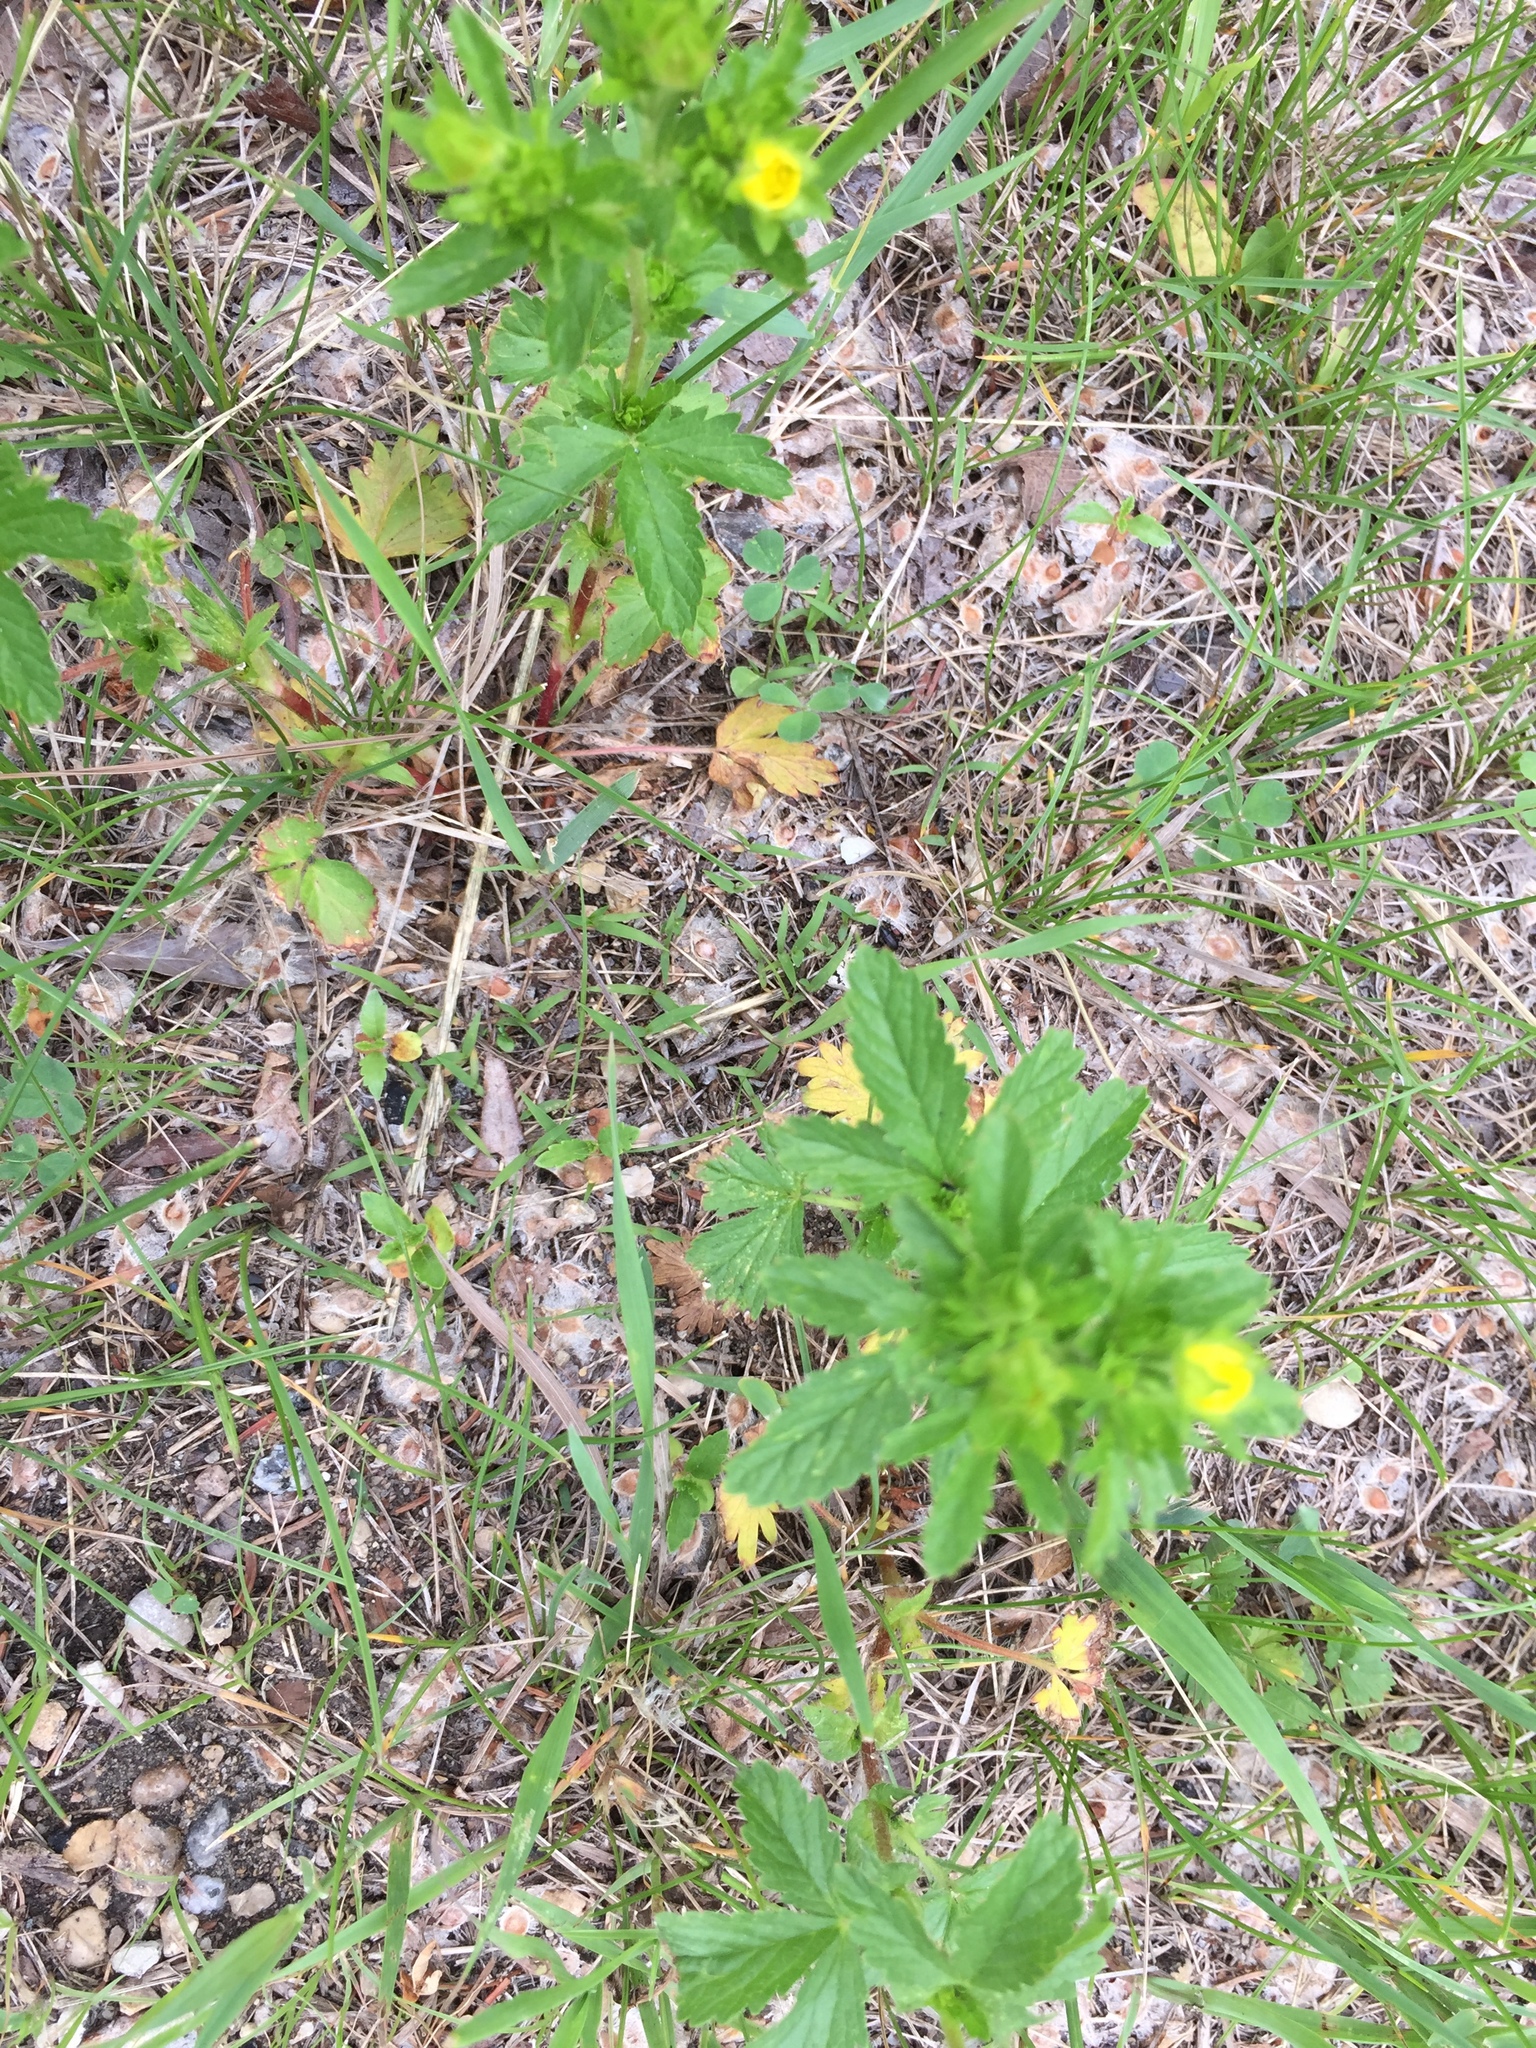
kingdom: Plantae
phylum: Tracheophyta
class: Magnoliopsida
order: Rosales
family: Rosaceae
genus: Potentilla
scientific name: Potentilla norvegica
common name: Ternate-leaved cinquefoil
